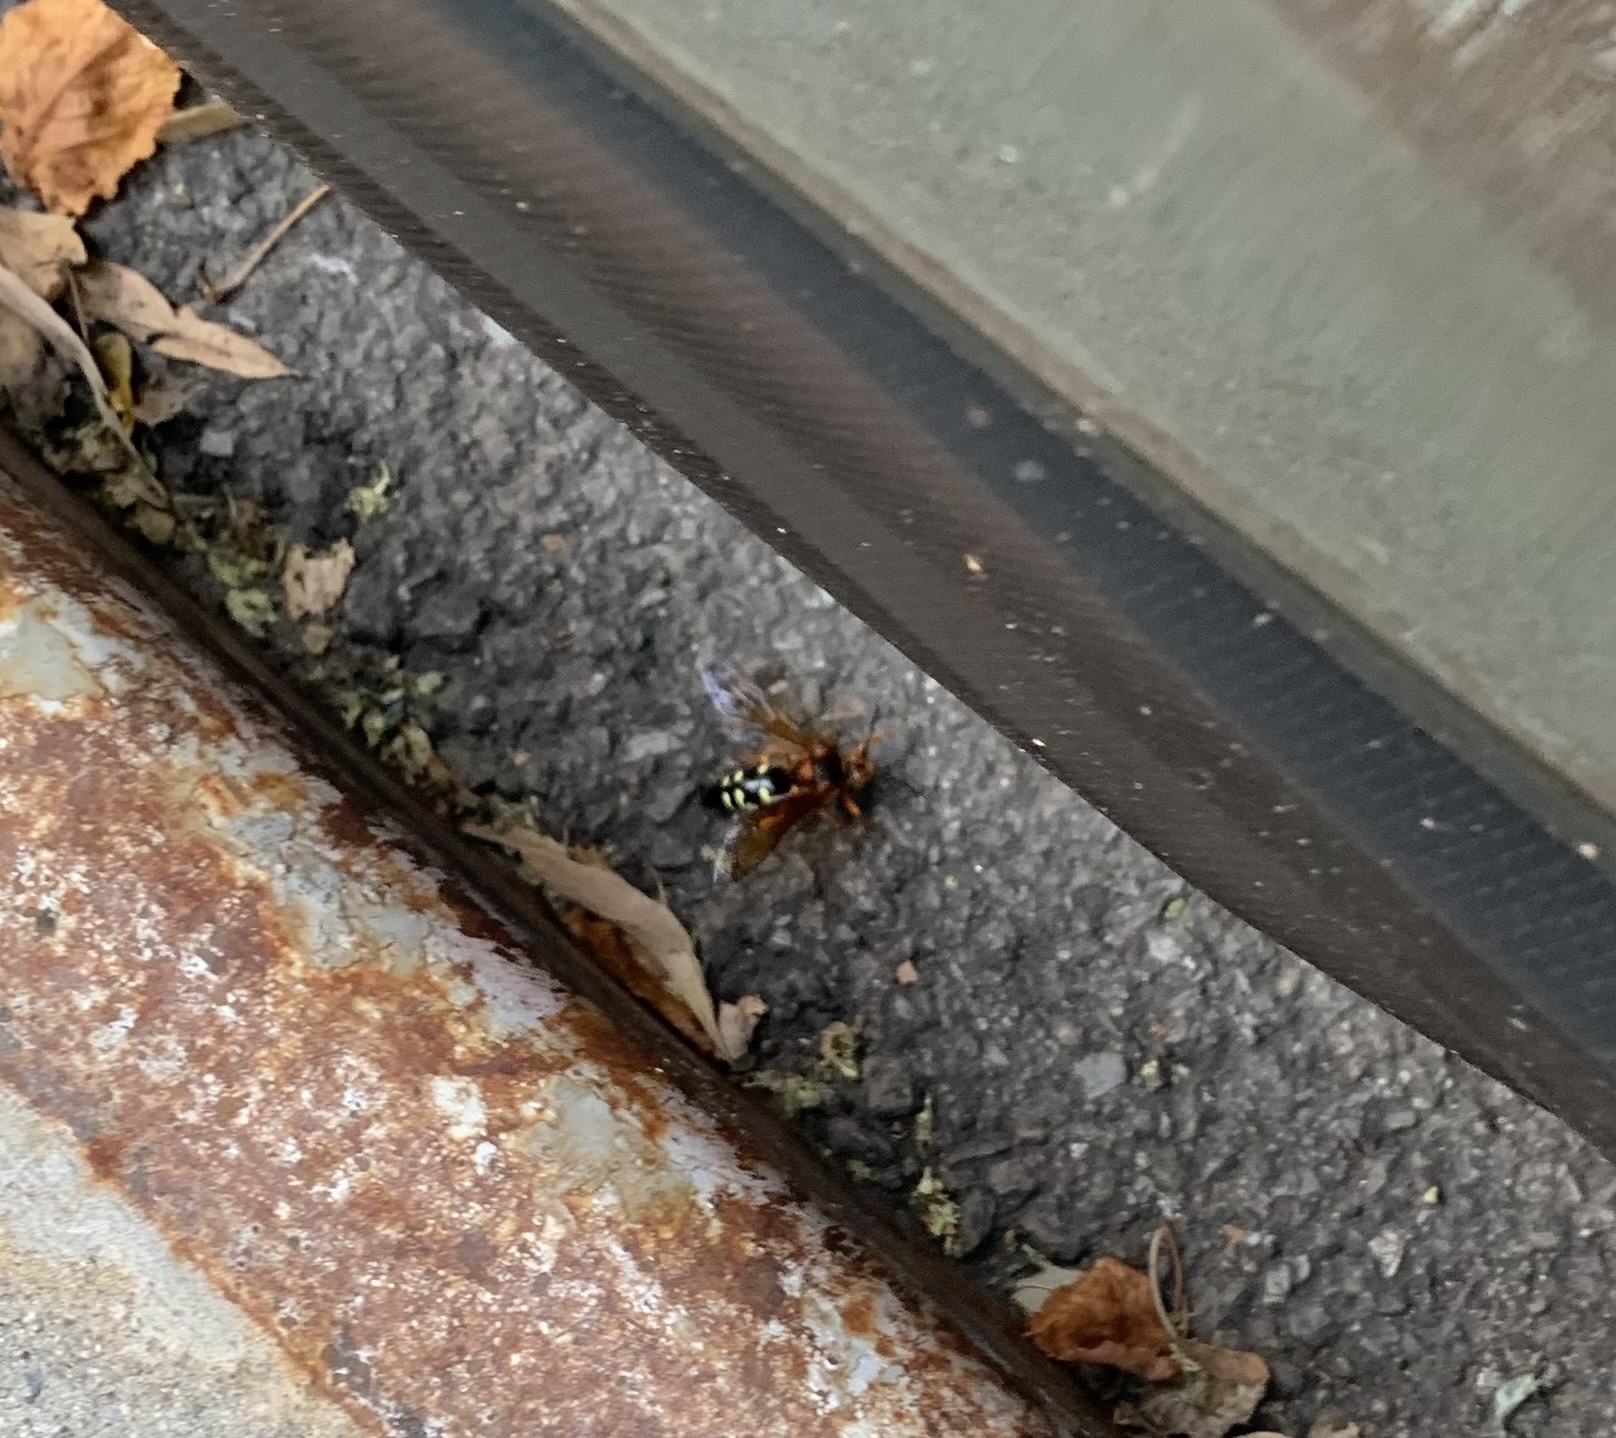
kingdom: Animalia
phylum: Arthropoda
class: Insecta
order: Hymenoptera
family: Crabronidae
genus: Sphecius
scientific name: Sphecius speciosus
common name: Cicada killer
